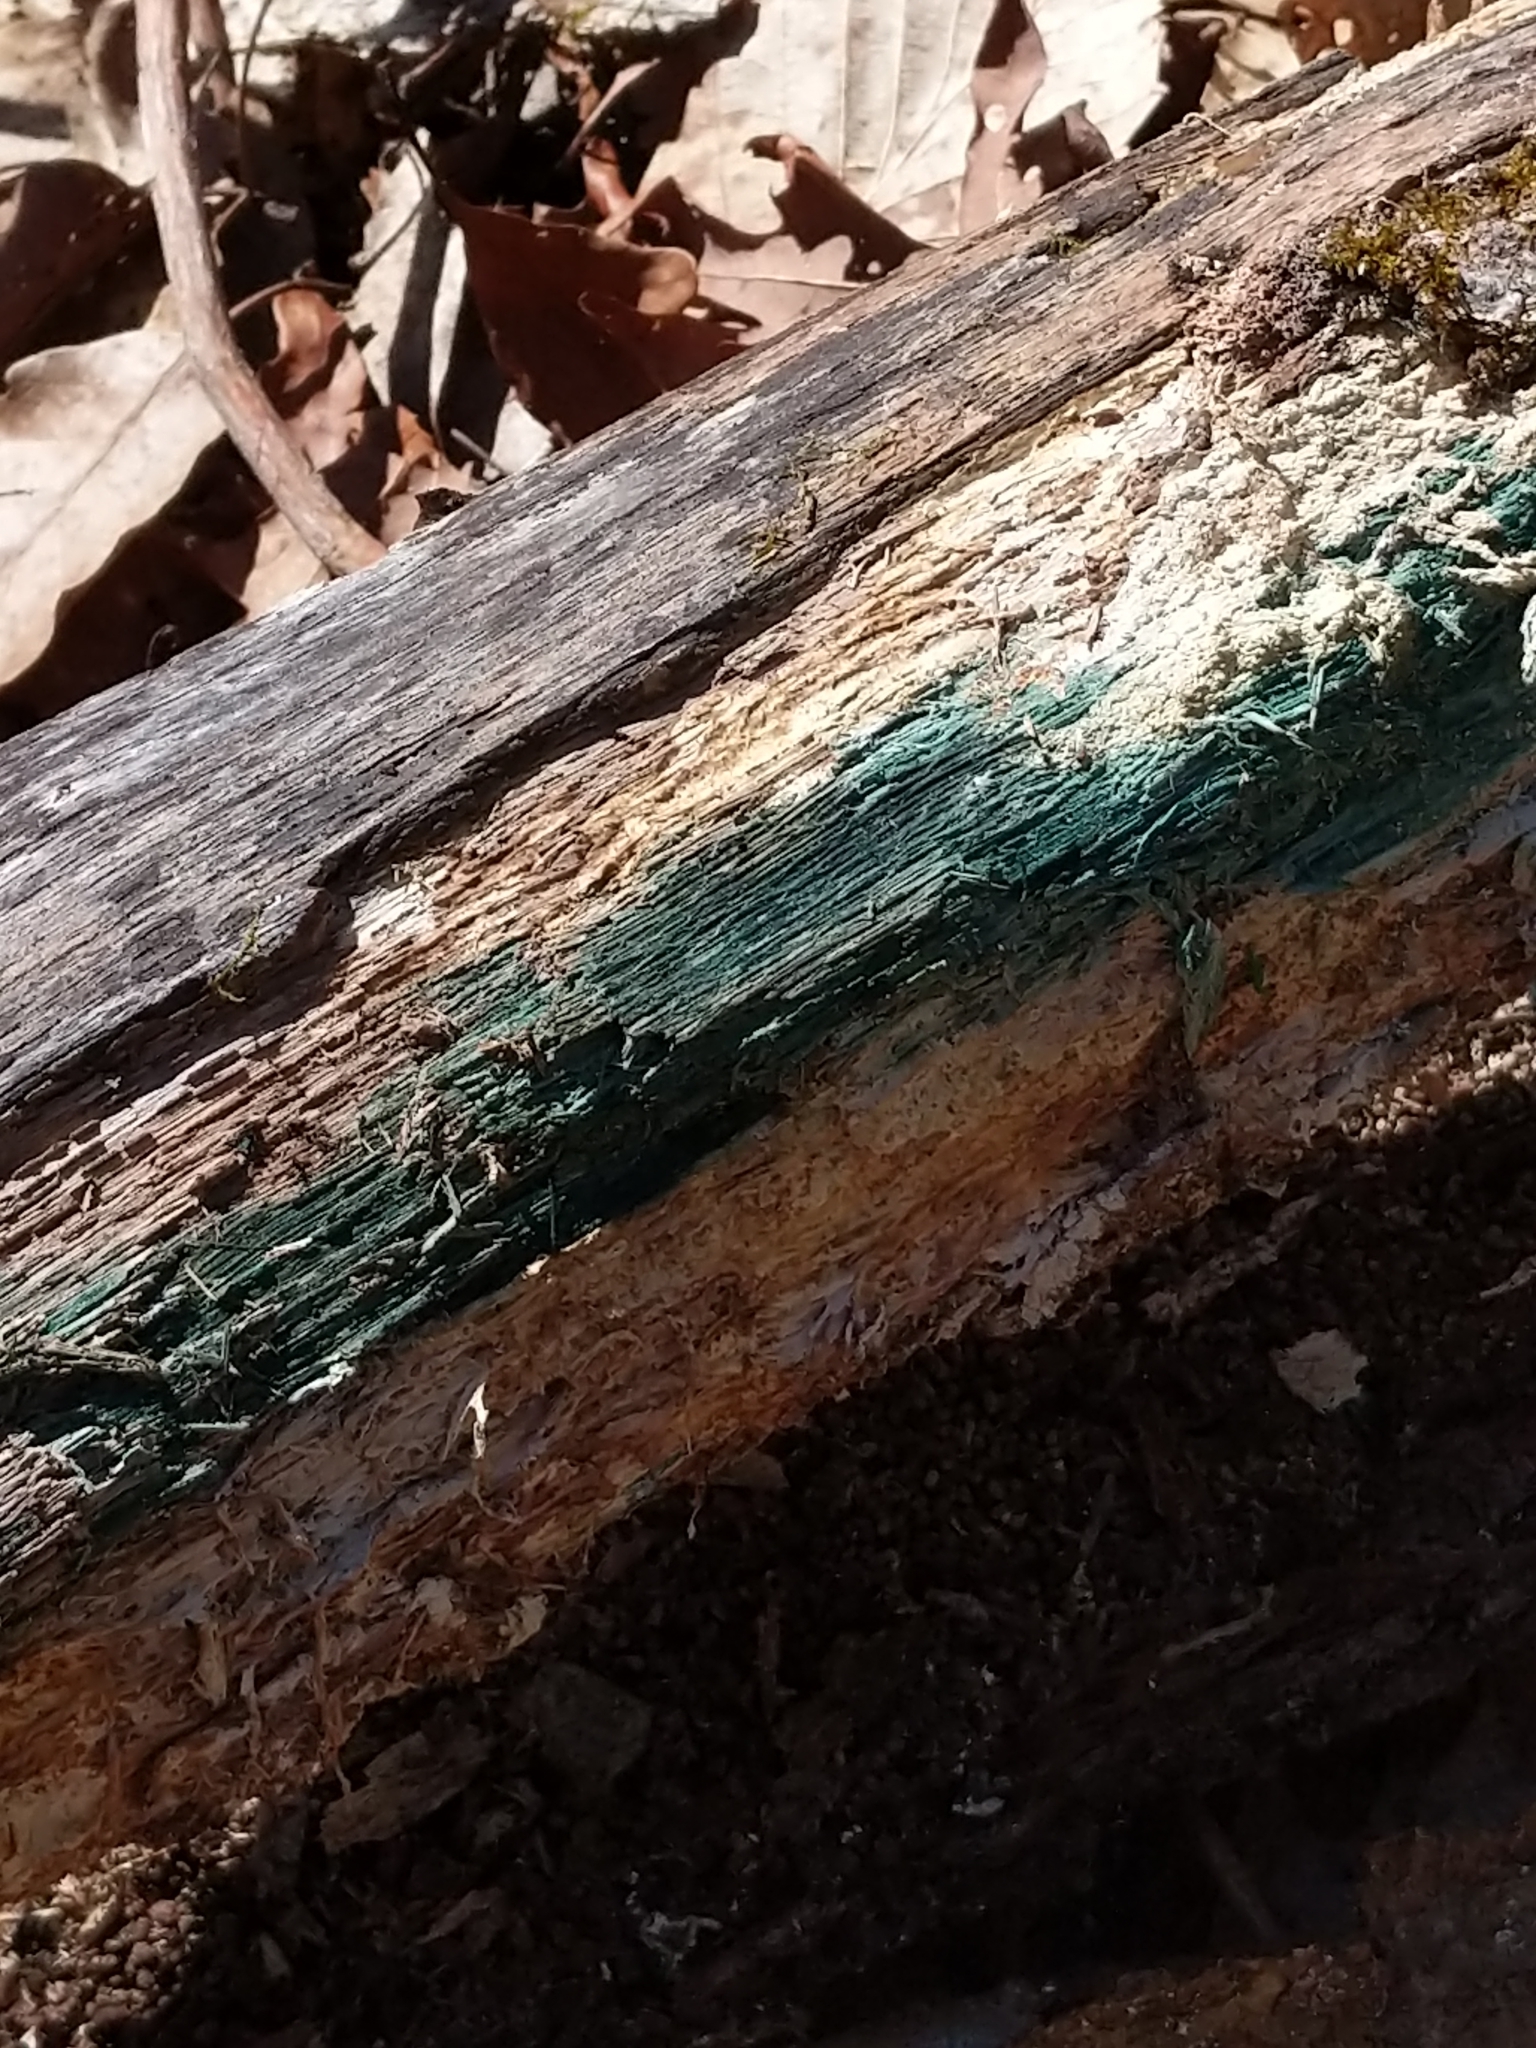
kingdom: Fungi
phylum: Ascomycota
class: Leotiomycetes
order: Helotiales
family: Chlorociboriaceae
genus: Chlorociboria
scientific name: Chlorociboria
